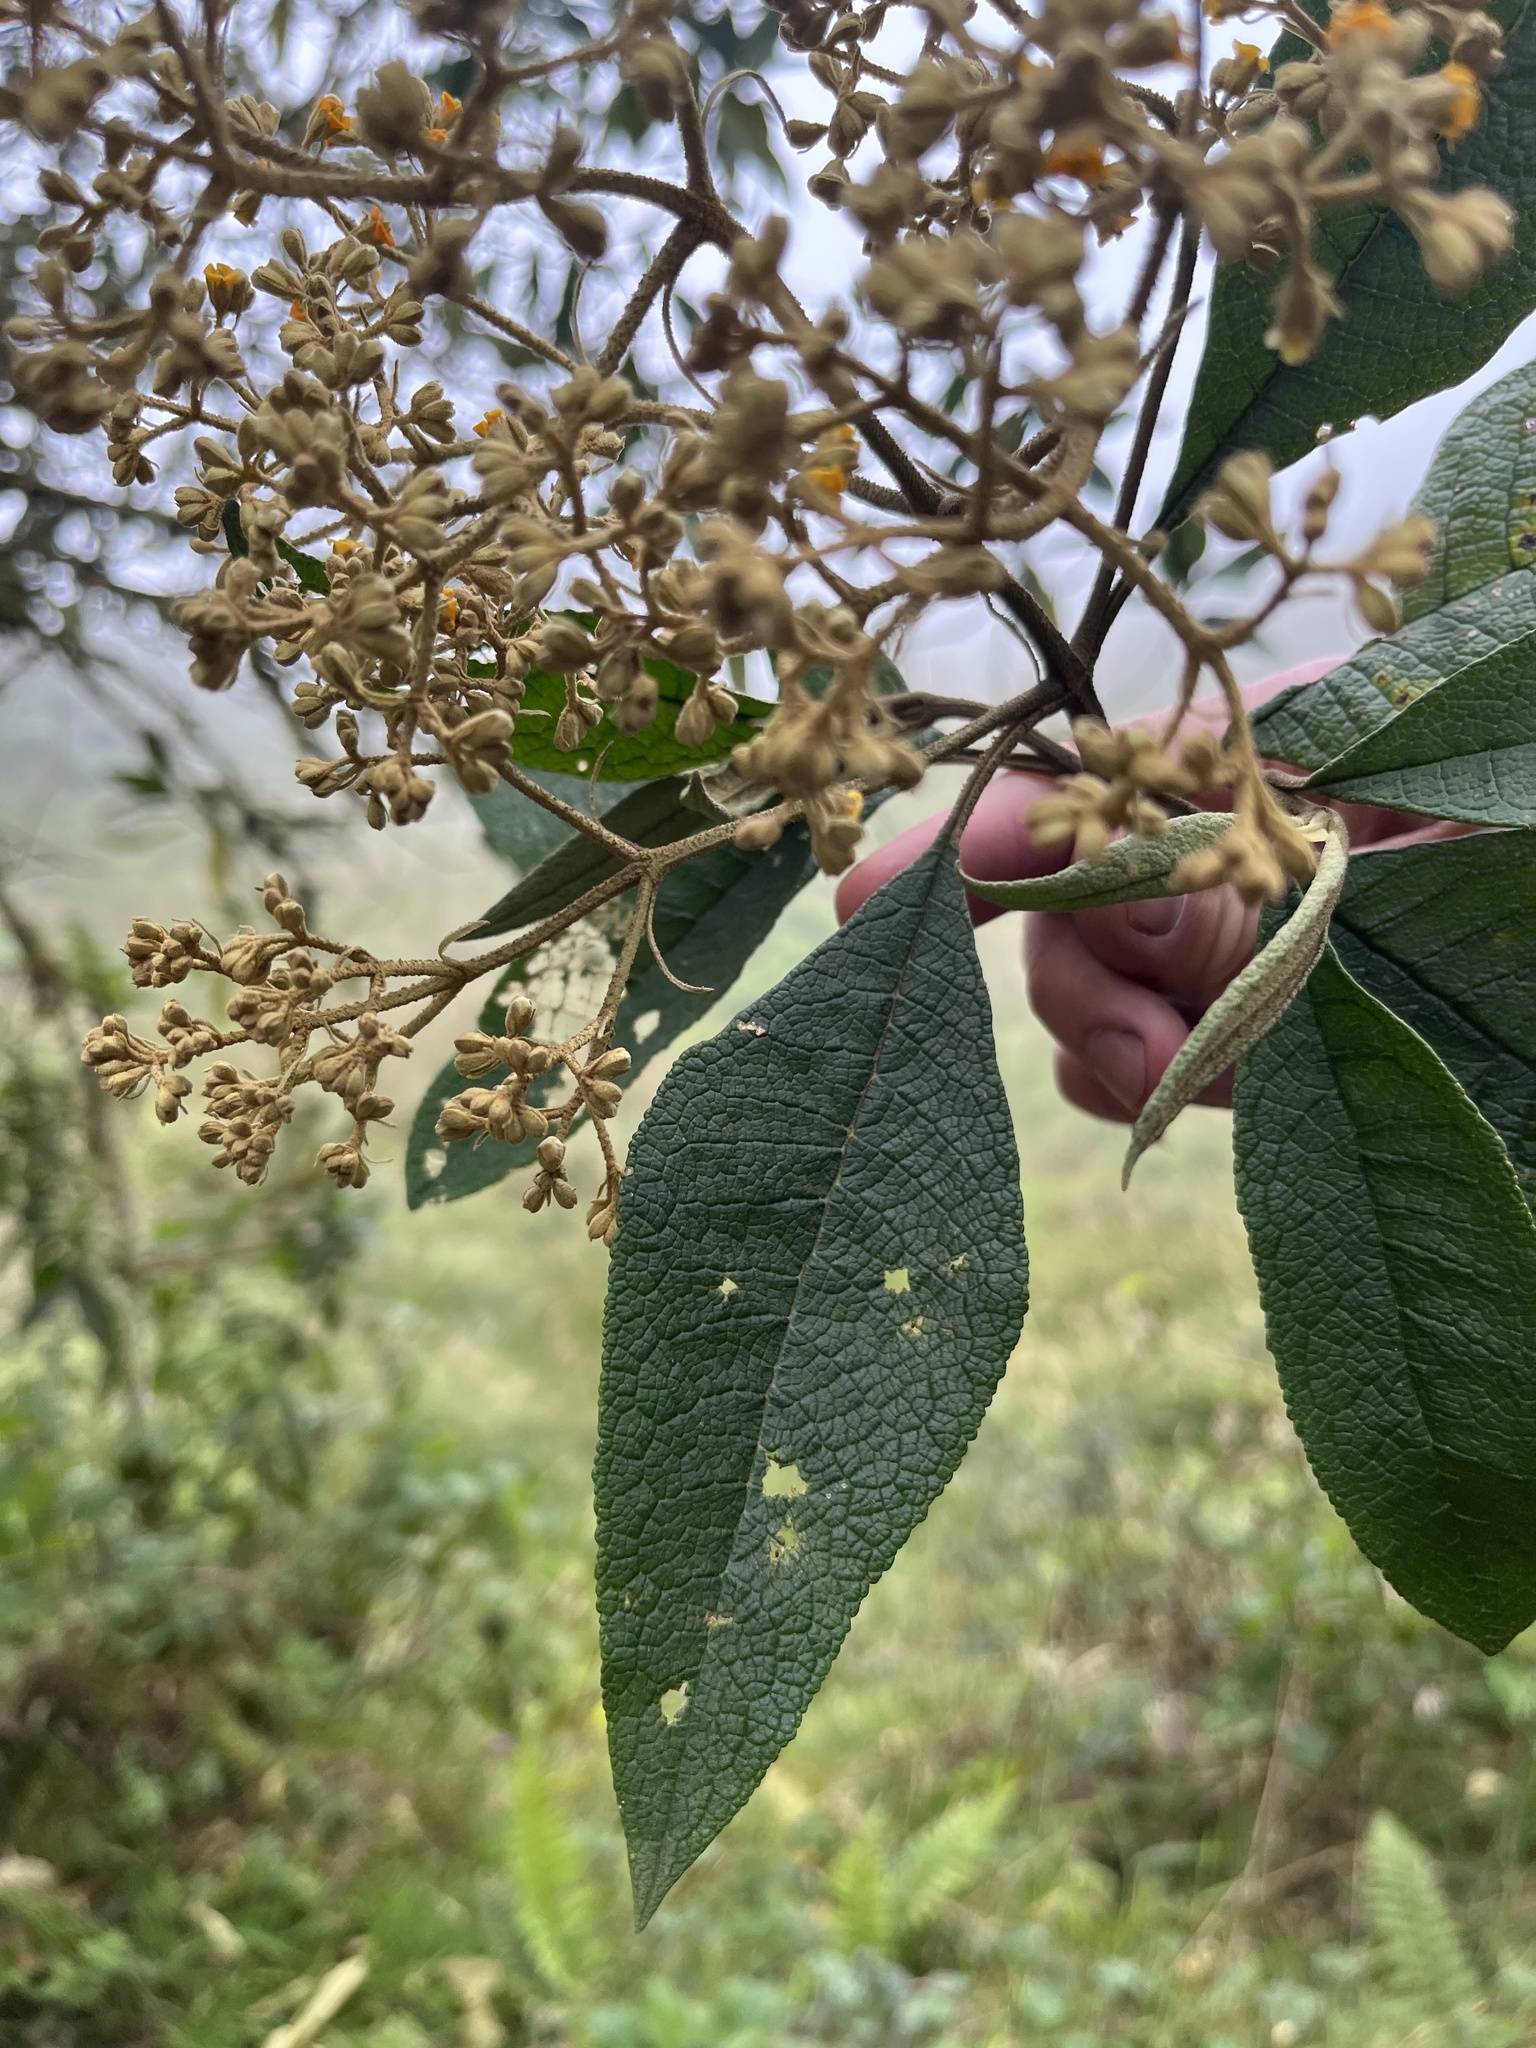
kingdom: Plantae
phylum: Tracheophyta
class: Magnoliopsida
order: Lamiales
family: Scrophulariaceae
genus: Buddleja
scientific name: Buddleja bullata
